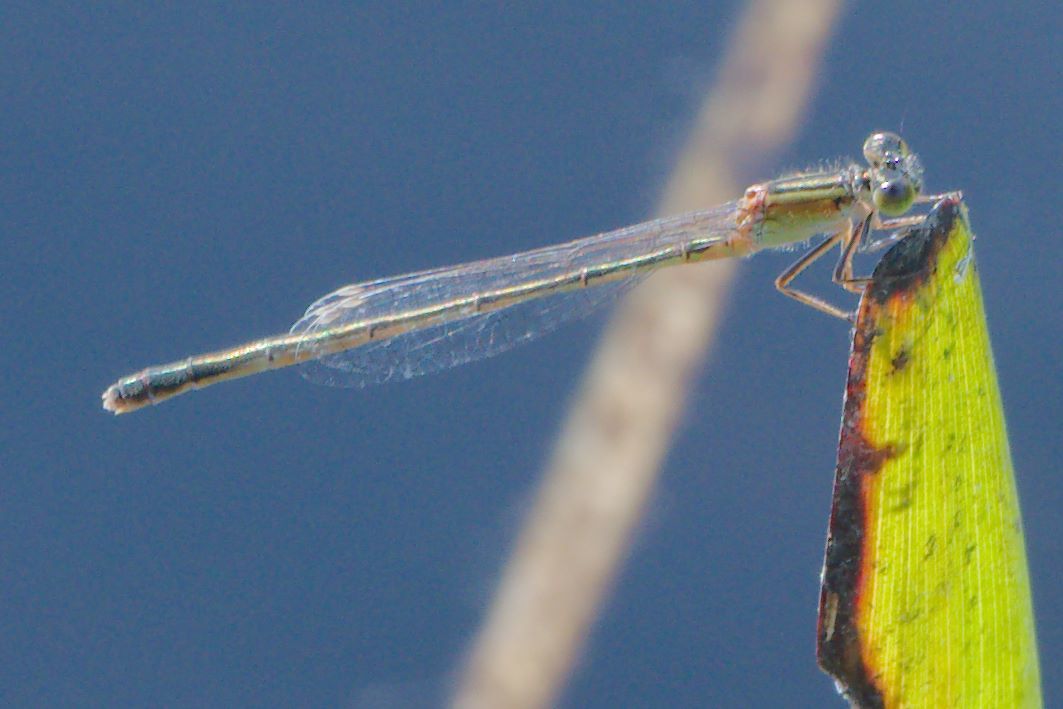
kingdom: Animalia
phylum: Arthropoda
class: Insecta
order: Odonata
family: Coenagrionidae
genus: Ischnura
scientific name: Ischnura ramburii
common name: Rambur's forktail
